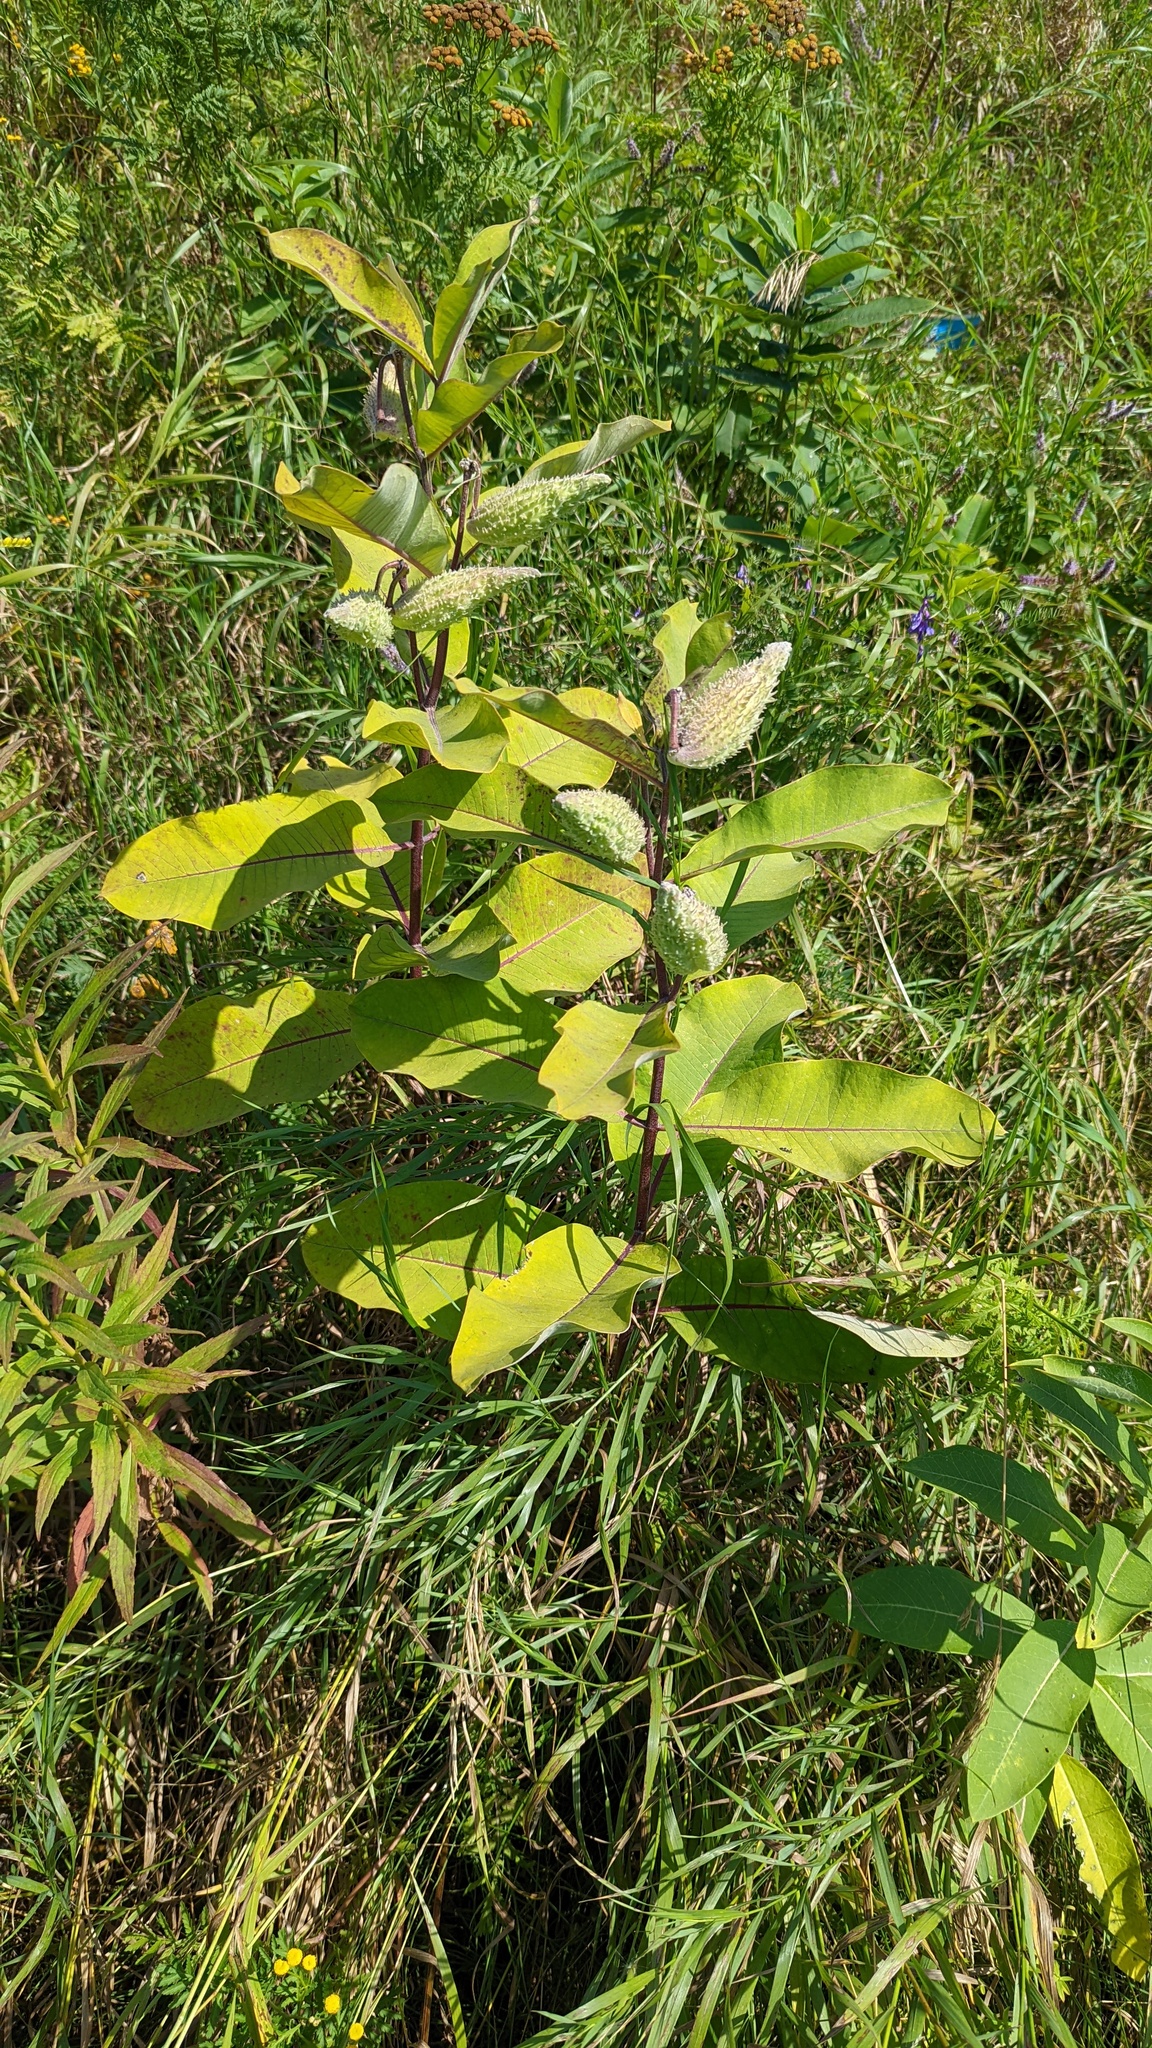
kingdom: Plantae
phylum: Tracheophyta
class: Magnoliopsida
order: Gentianales
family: Apocynaceae
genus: Asclepias
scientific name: Asclepias syriaca
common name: Common milkweed
